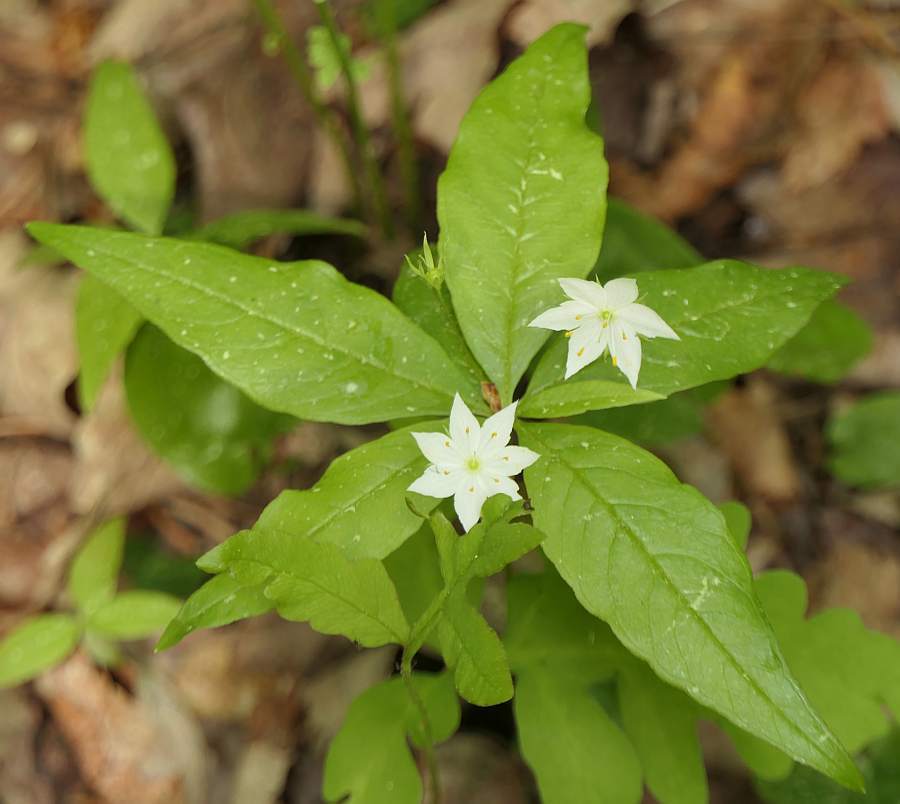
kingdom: Plantae
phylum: Tracheophyta
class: Magnoliopsida
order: Ericales
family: Primulaceae
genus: Lysimachia
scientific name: Lysimachia borealis
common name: American starflower
